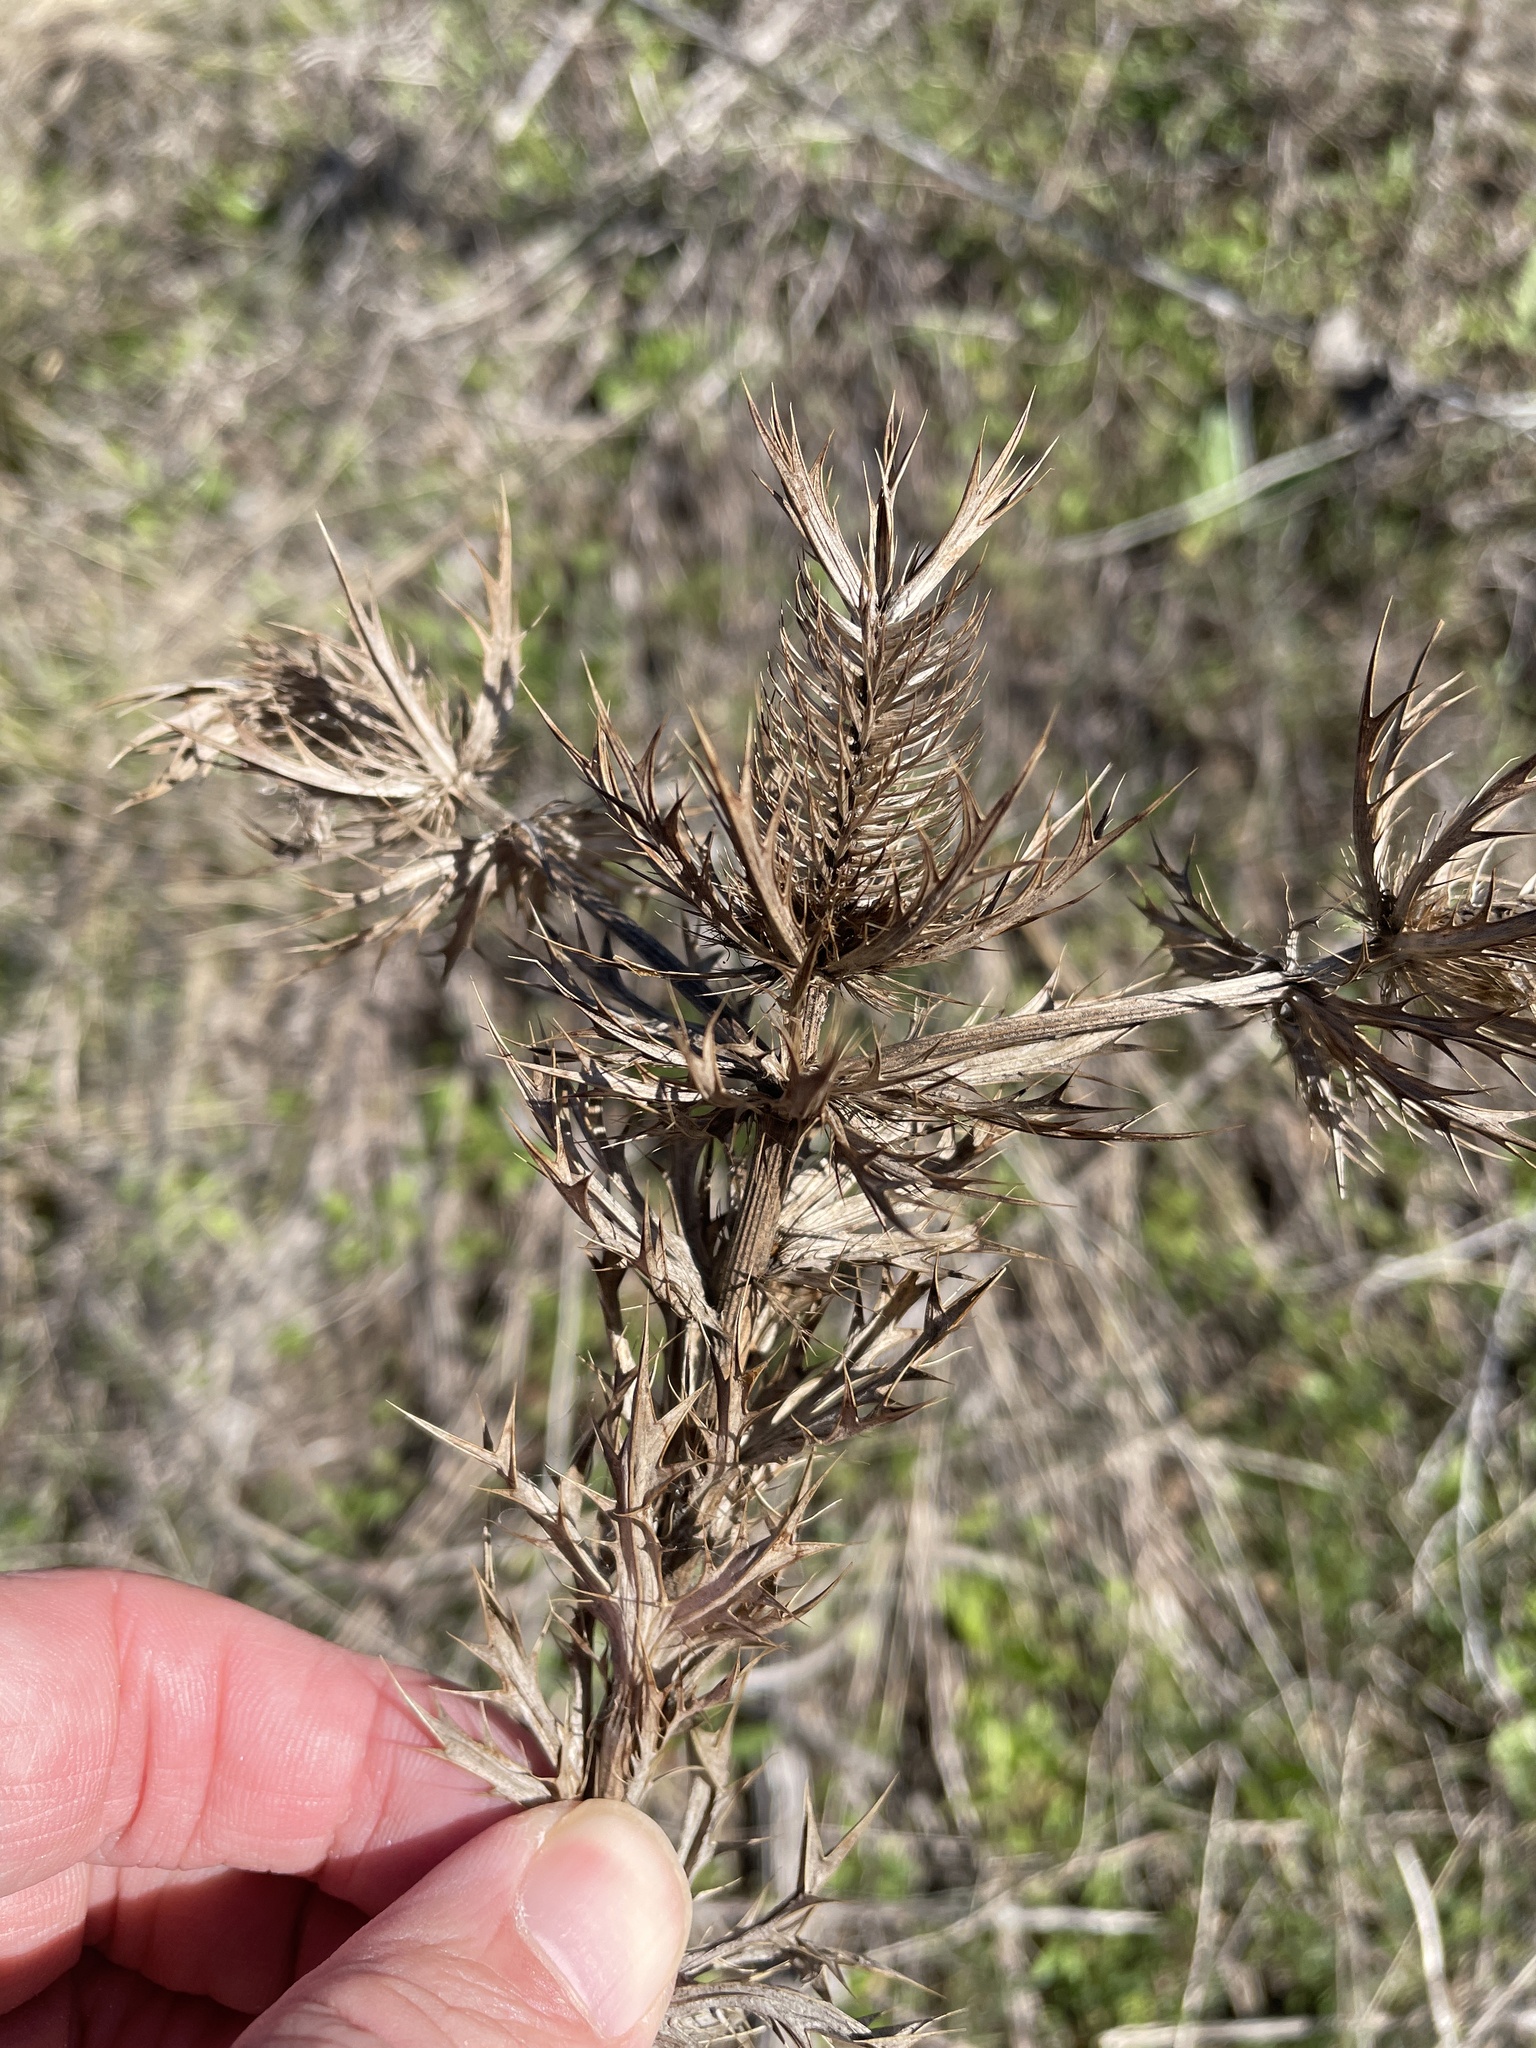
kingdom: Plantae
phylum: Tracheophyta
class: Magnoliopsida
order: Apiales
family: Apiaceae
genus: Eryngium
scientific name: Eryngium leavenworthii
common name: Leavenworth's eryngo
